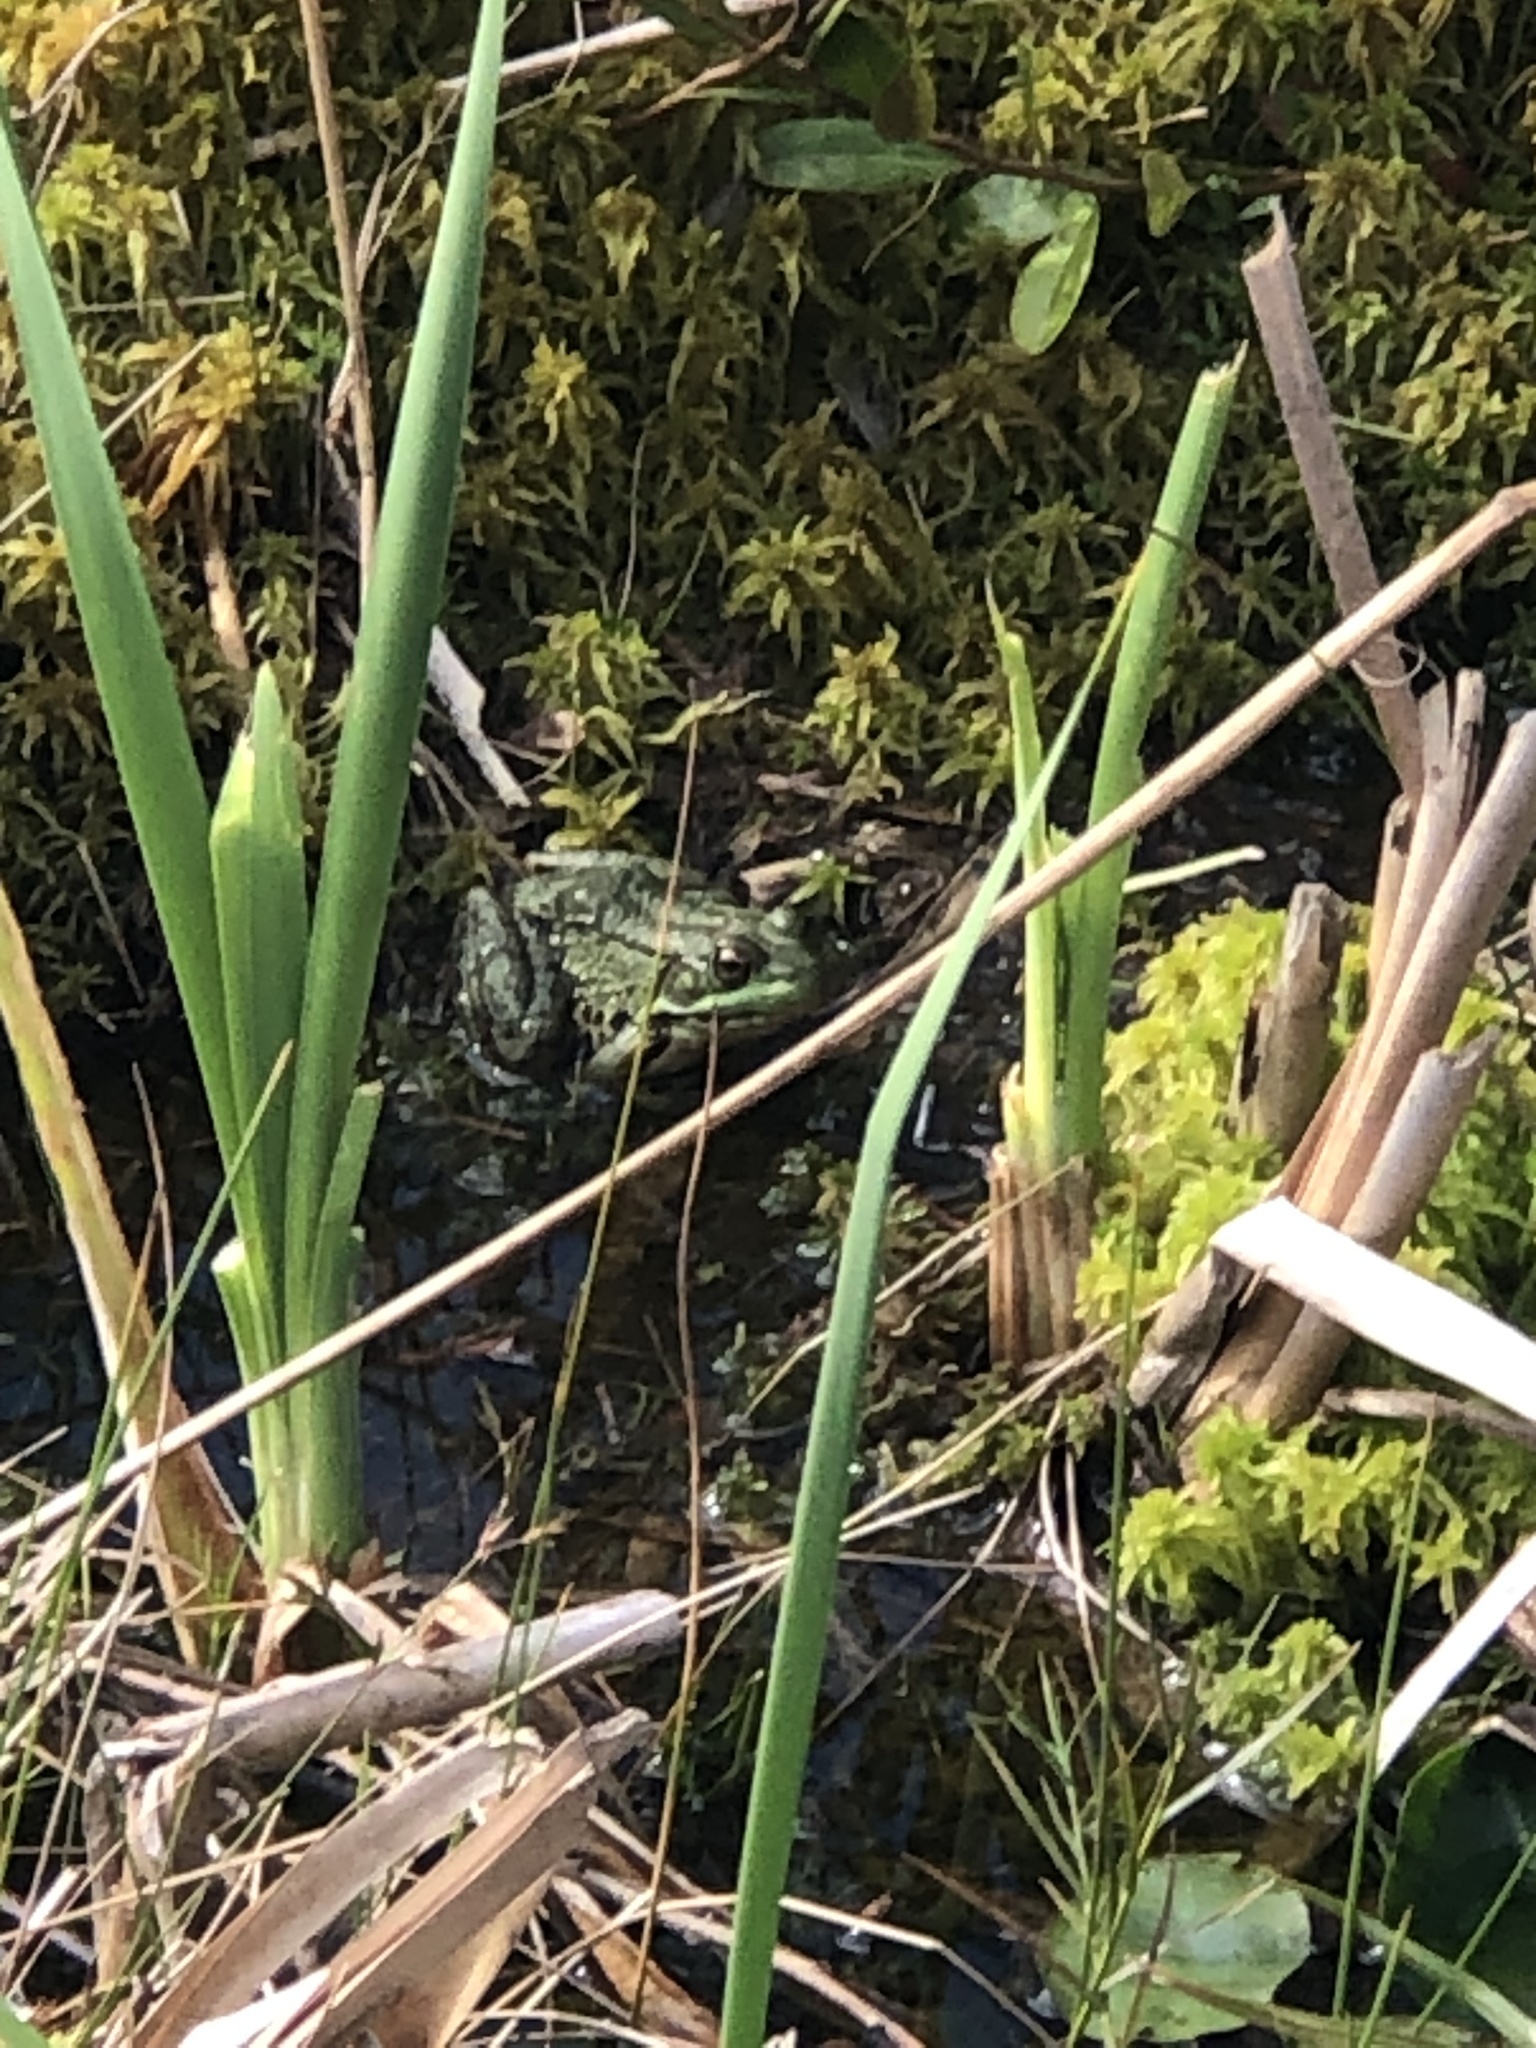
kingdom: Animalia
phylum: Chordata
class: Amphibia
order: Anura
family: Ranidae
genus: Lithobates
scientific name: Lithobates clamitans
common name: Green frog
